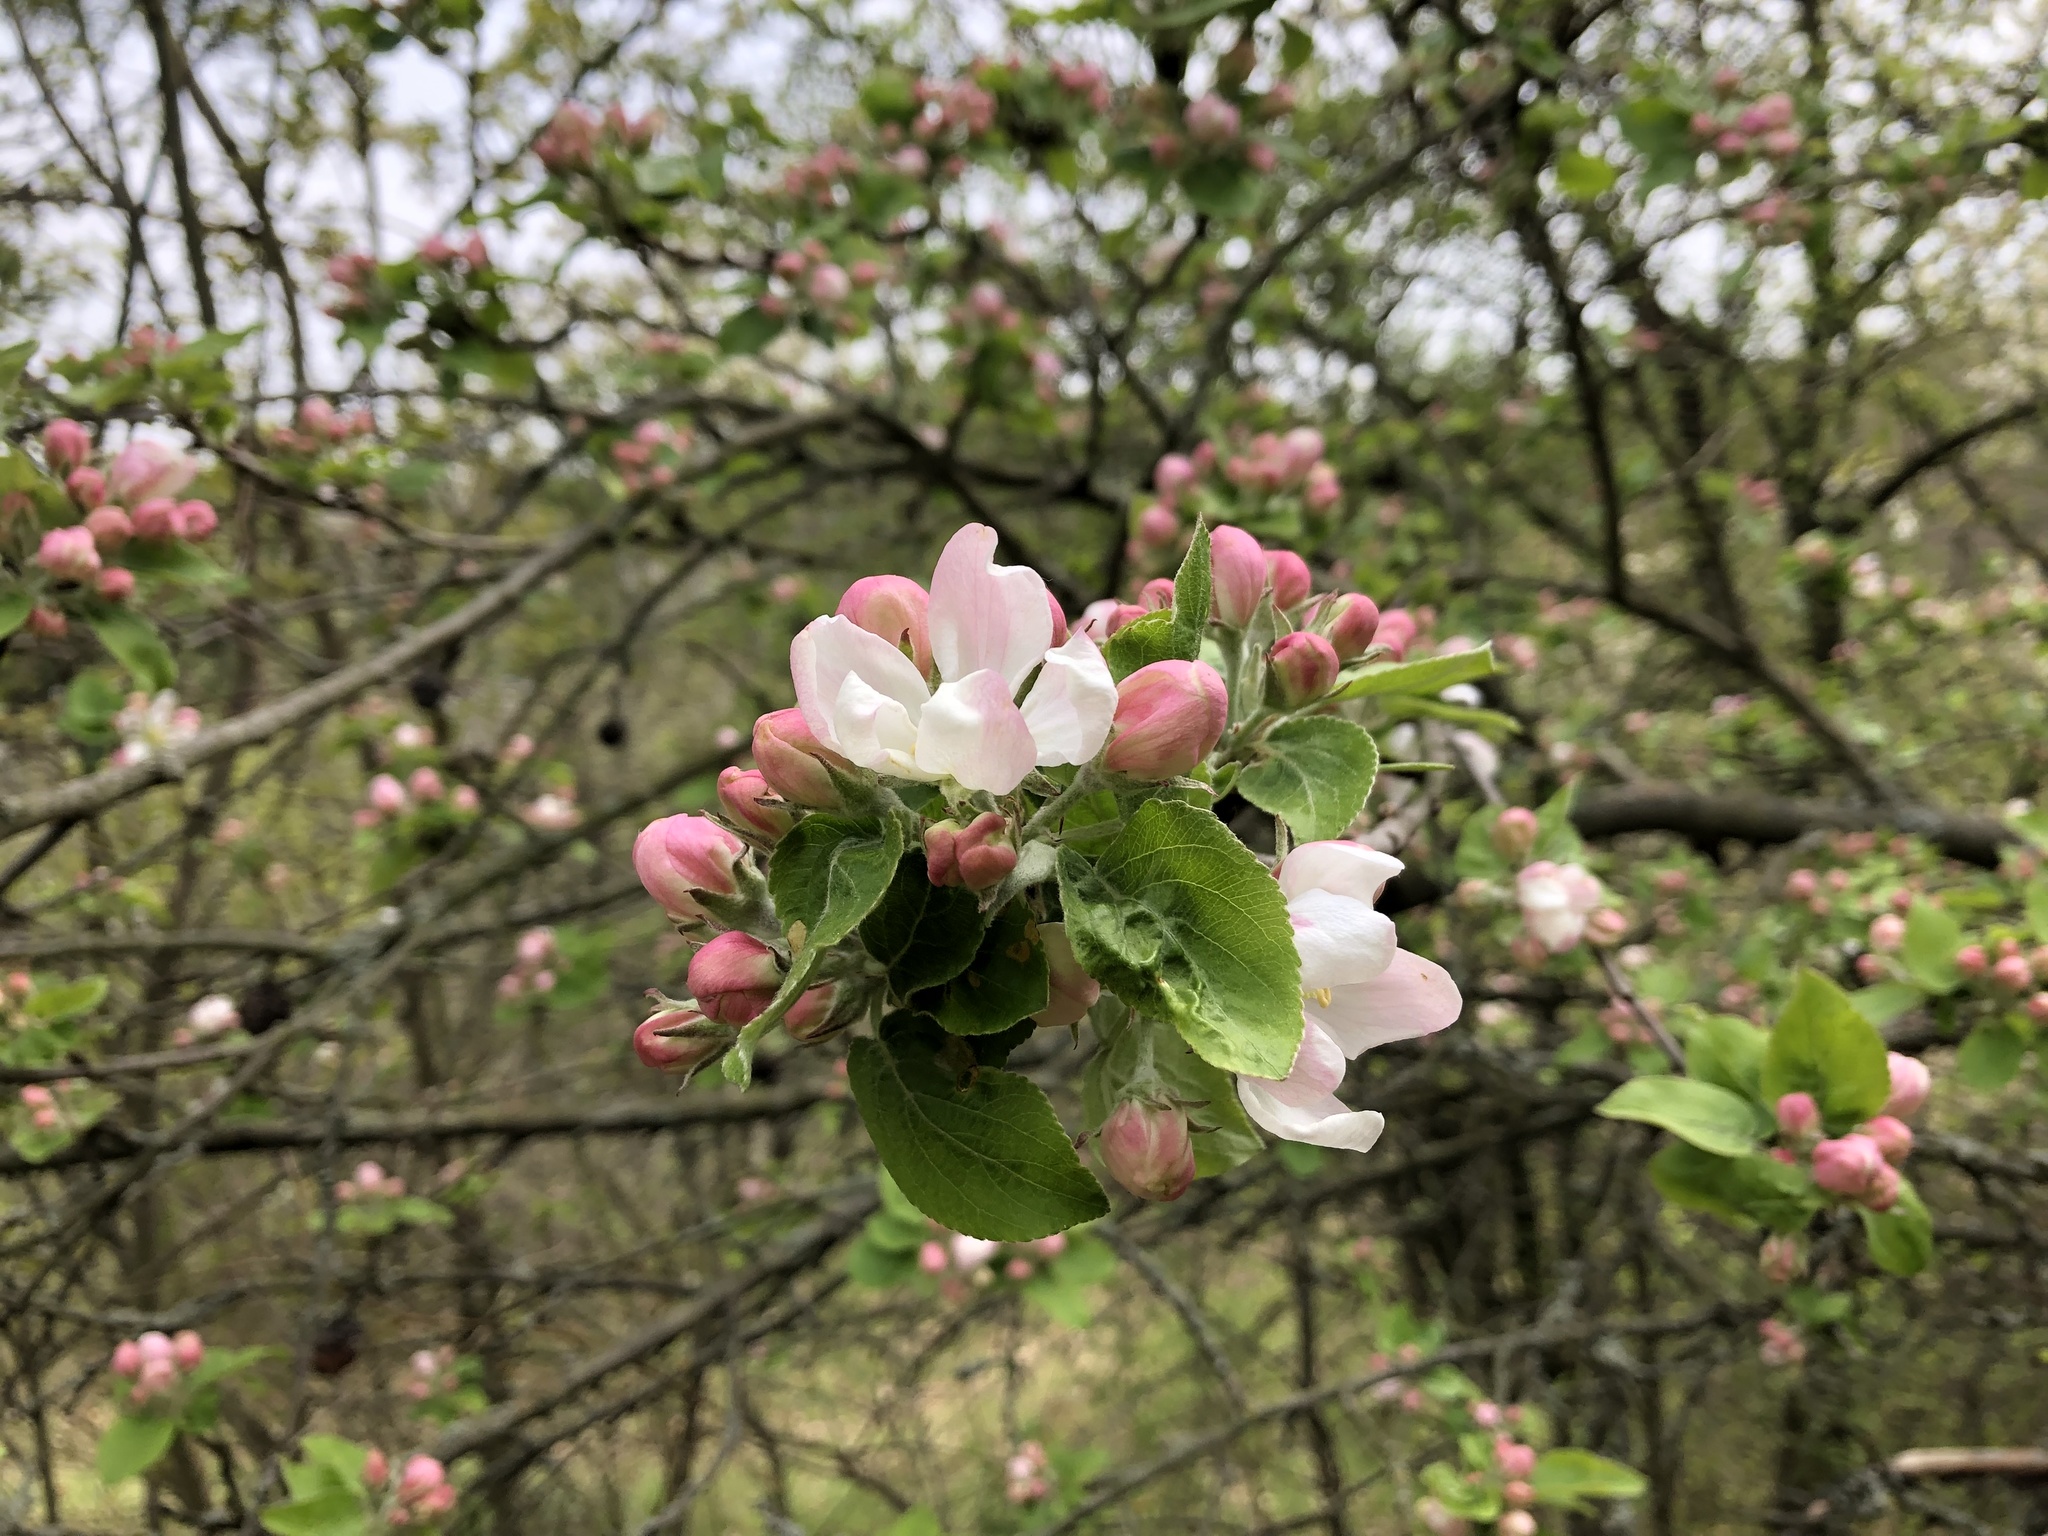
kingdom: Plantae
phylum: Tracheophyta
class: Magnoliopsida
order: Rosales
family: Rosaceae
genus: Malus
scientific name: Malus domestica
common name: Apple
